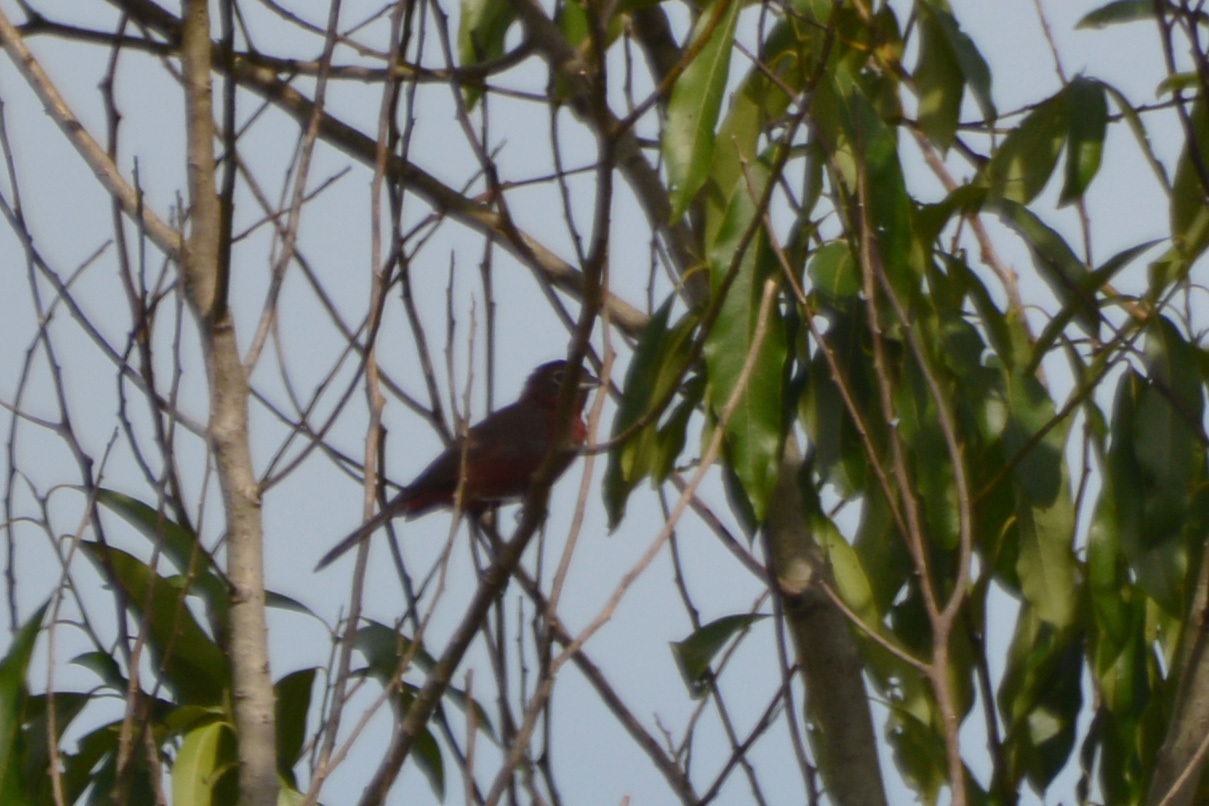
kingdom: Animalia
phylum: Chordata
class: Aves
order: Passeriformes
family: Thraupidae
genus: Coryphospingus
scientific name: Coryphospingus cucullatus
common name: Red pileated finch
